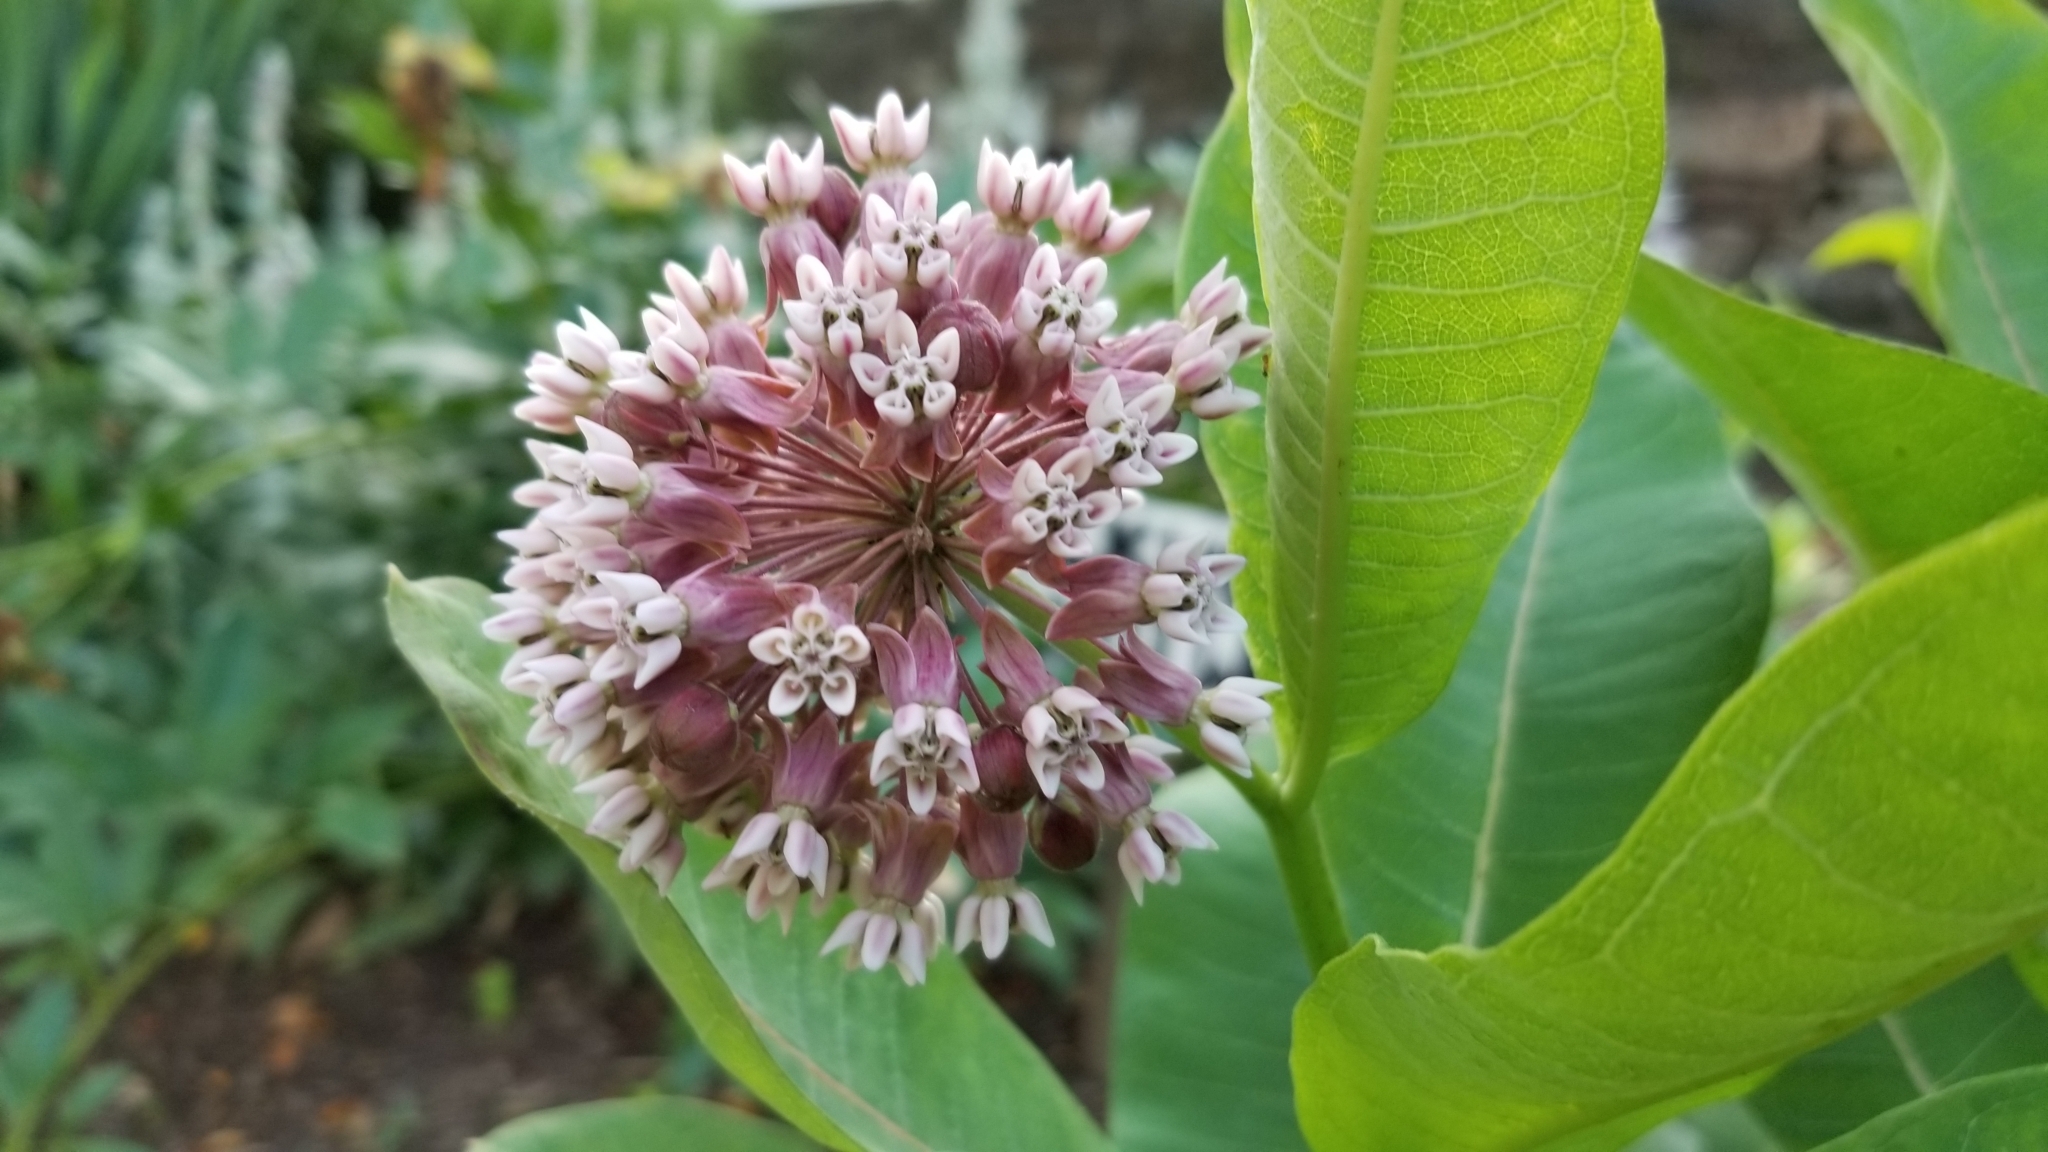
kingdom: Plantae
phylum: Tracheophyta
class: Magnoliopsida
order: Gentianales
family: Apocynaceae
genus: Asclepias
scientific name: Asclepias syriaca
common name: Common milkweed
